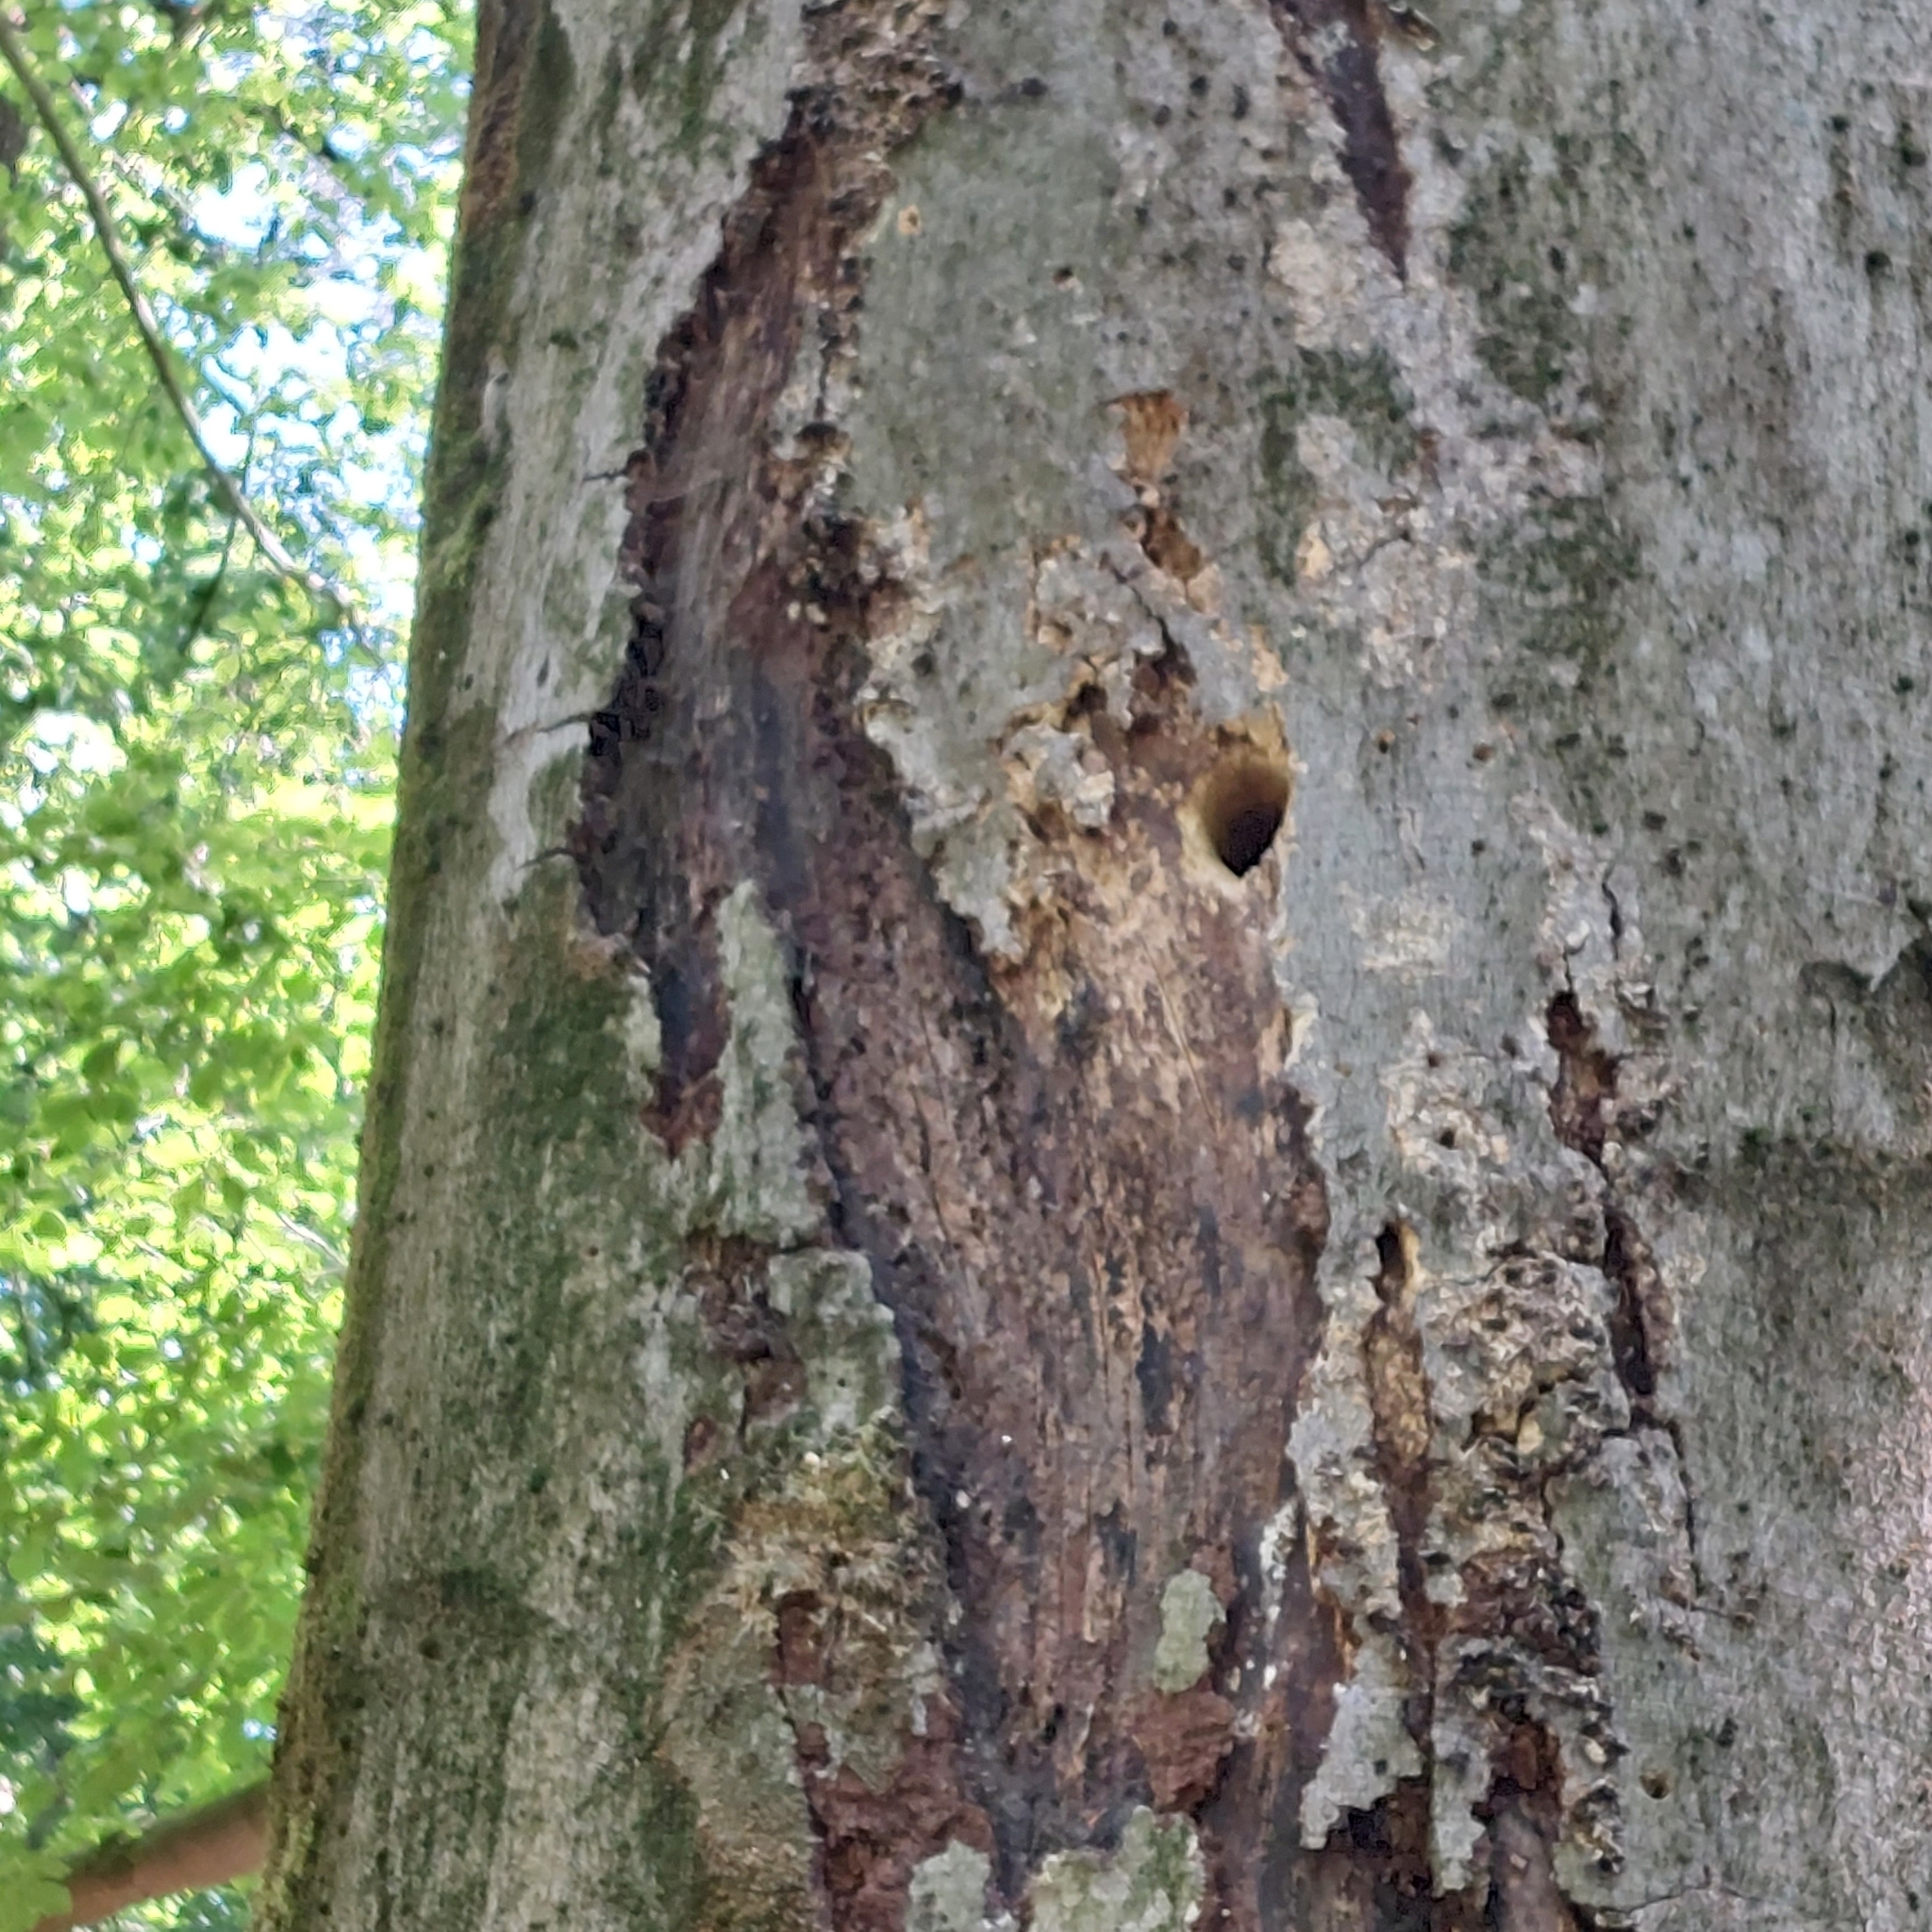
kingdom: Animalia
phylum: Chordata
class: Aves
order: Piciformes
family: Picidae
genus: Dendrocopos
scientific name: Dendrocopos major
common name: Great spotted woodpecker
